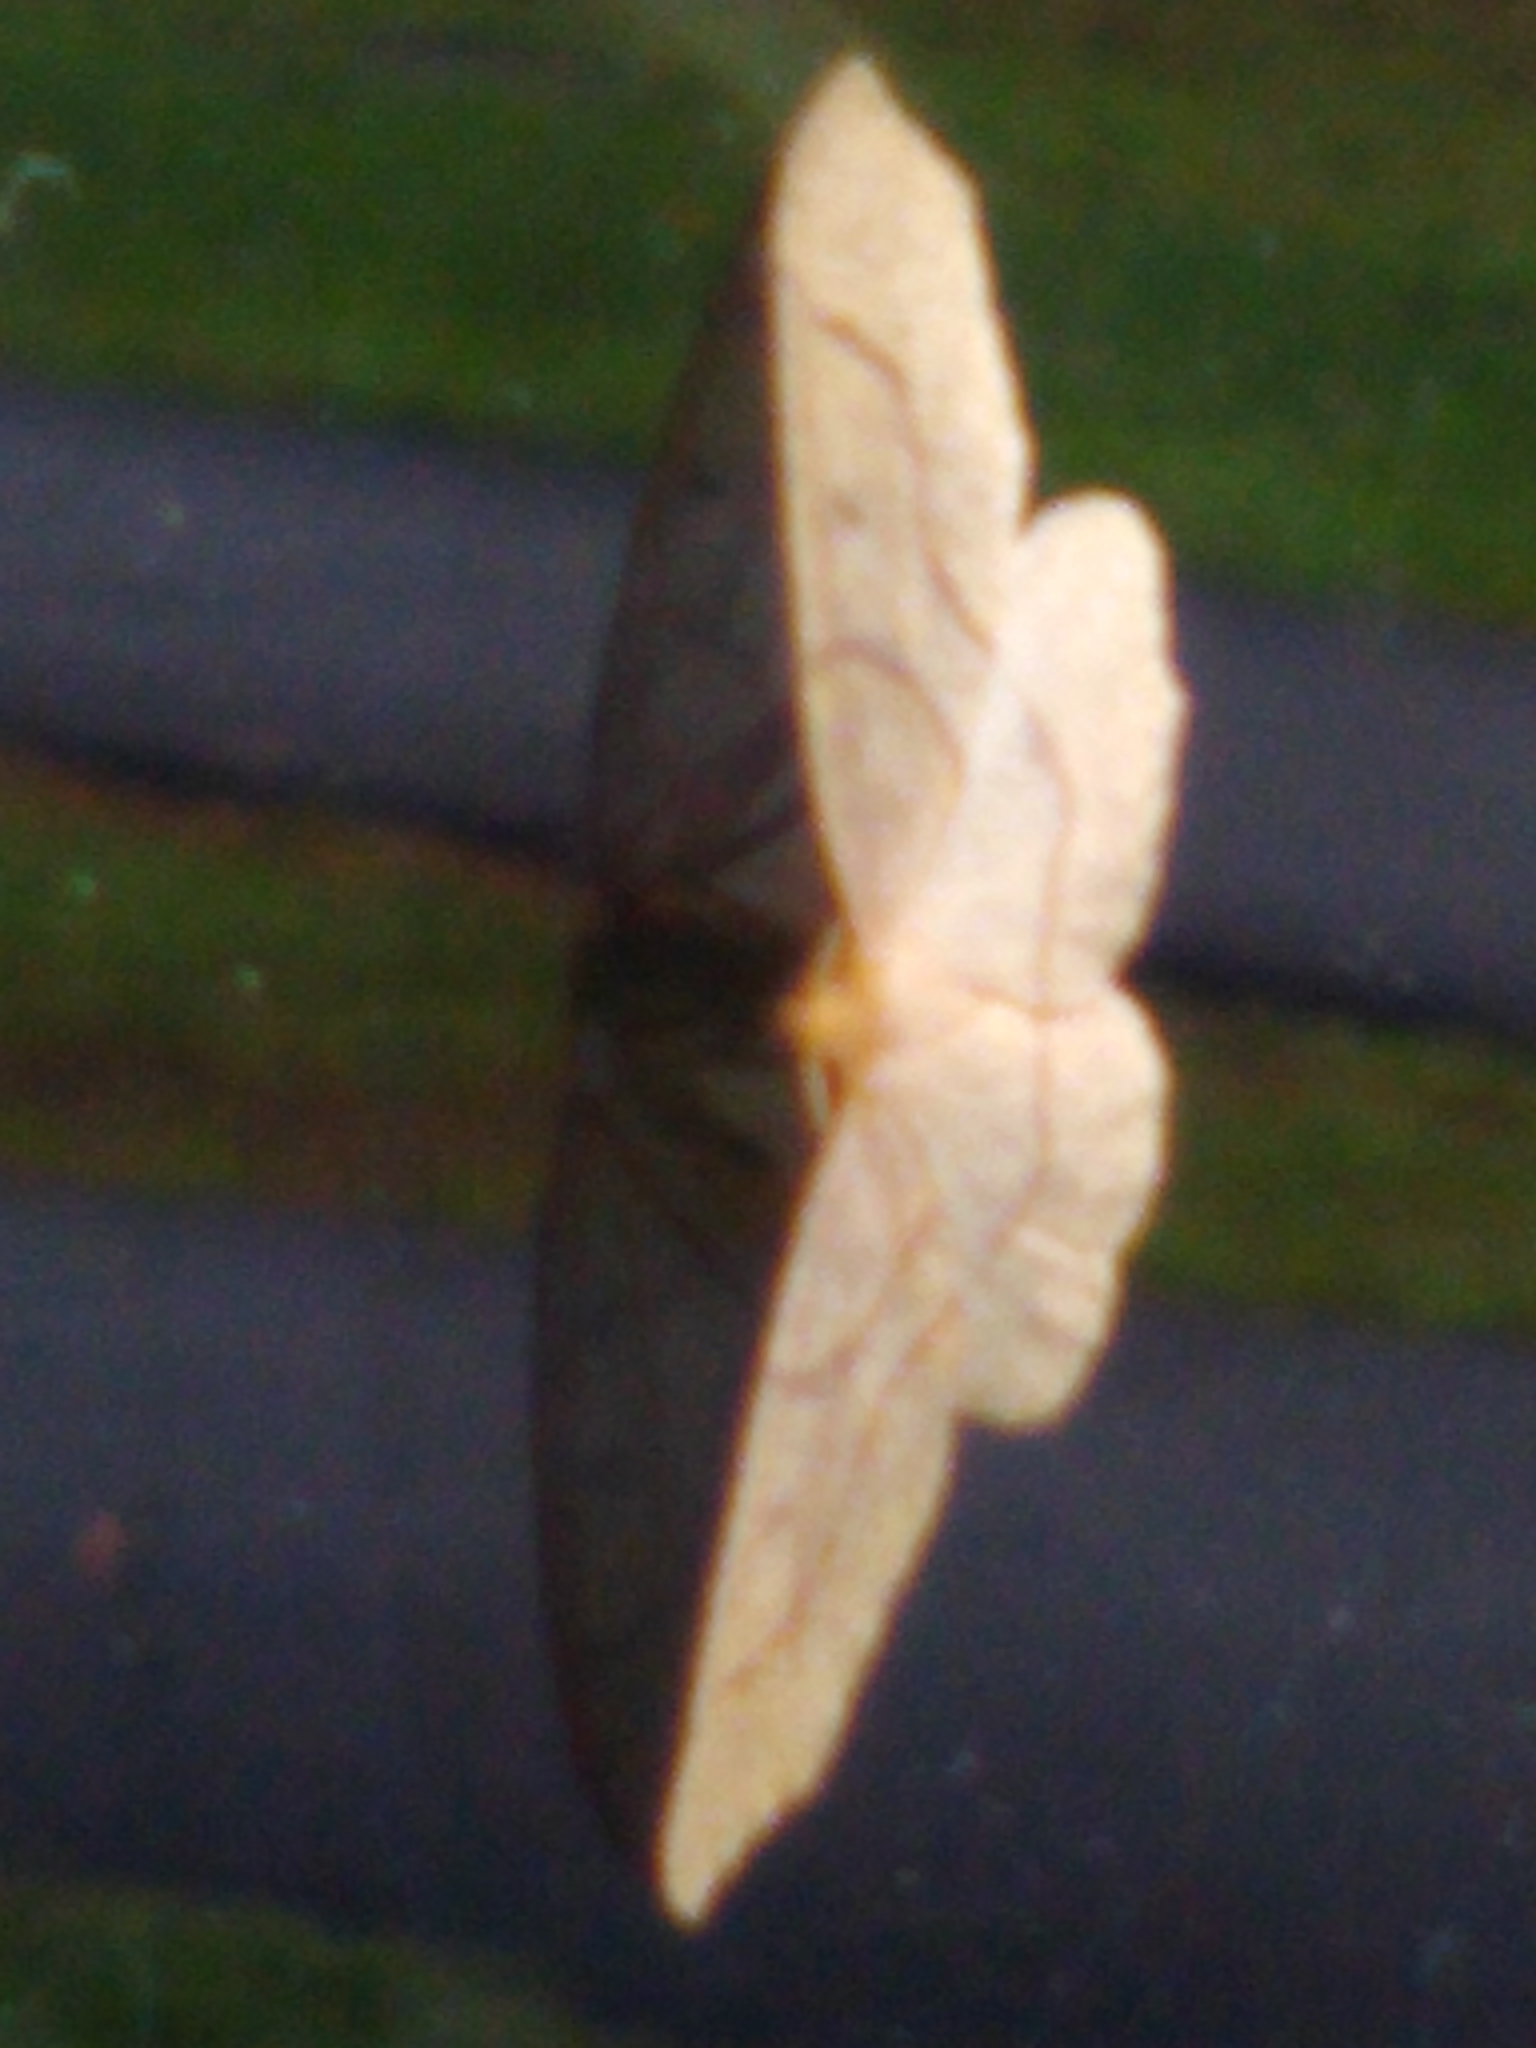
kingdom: Animalia
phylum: Arthropoda
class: Insecta
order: Lepidoptera
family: Geometridae
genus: Lambdina
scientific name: Lambdina fiscellaria
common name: Hemlock looper
